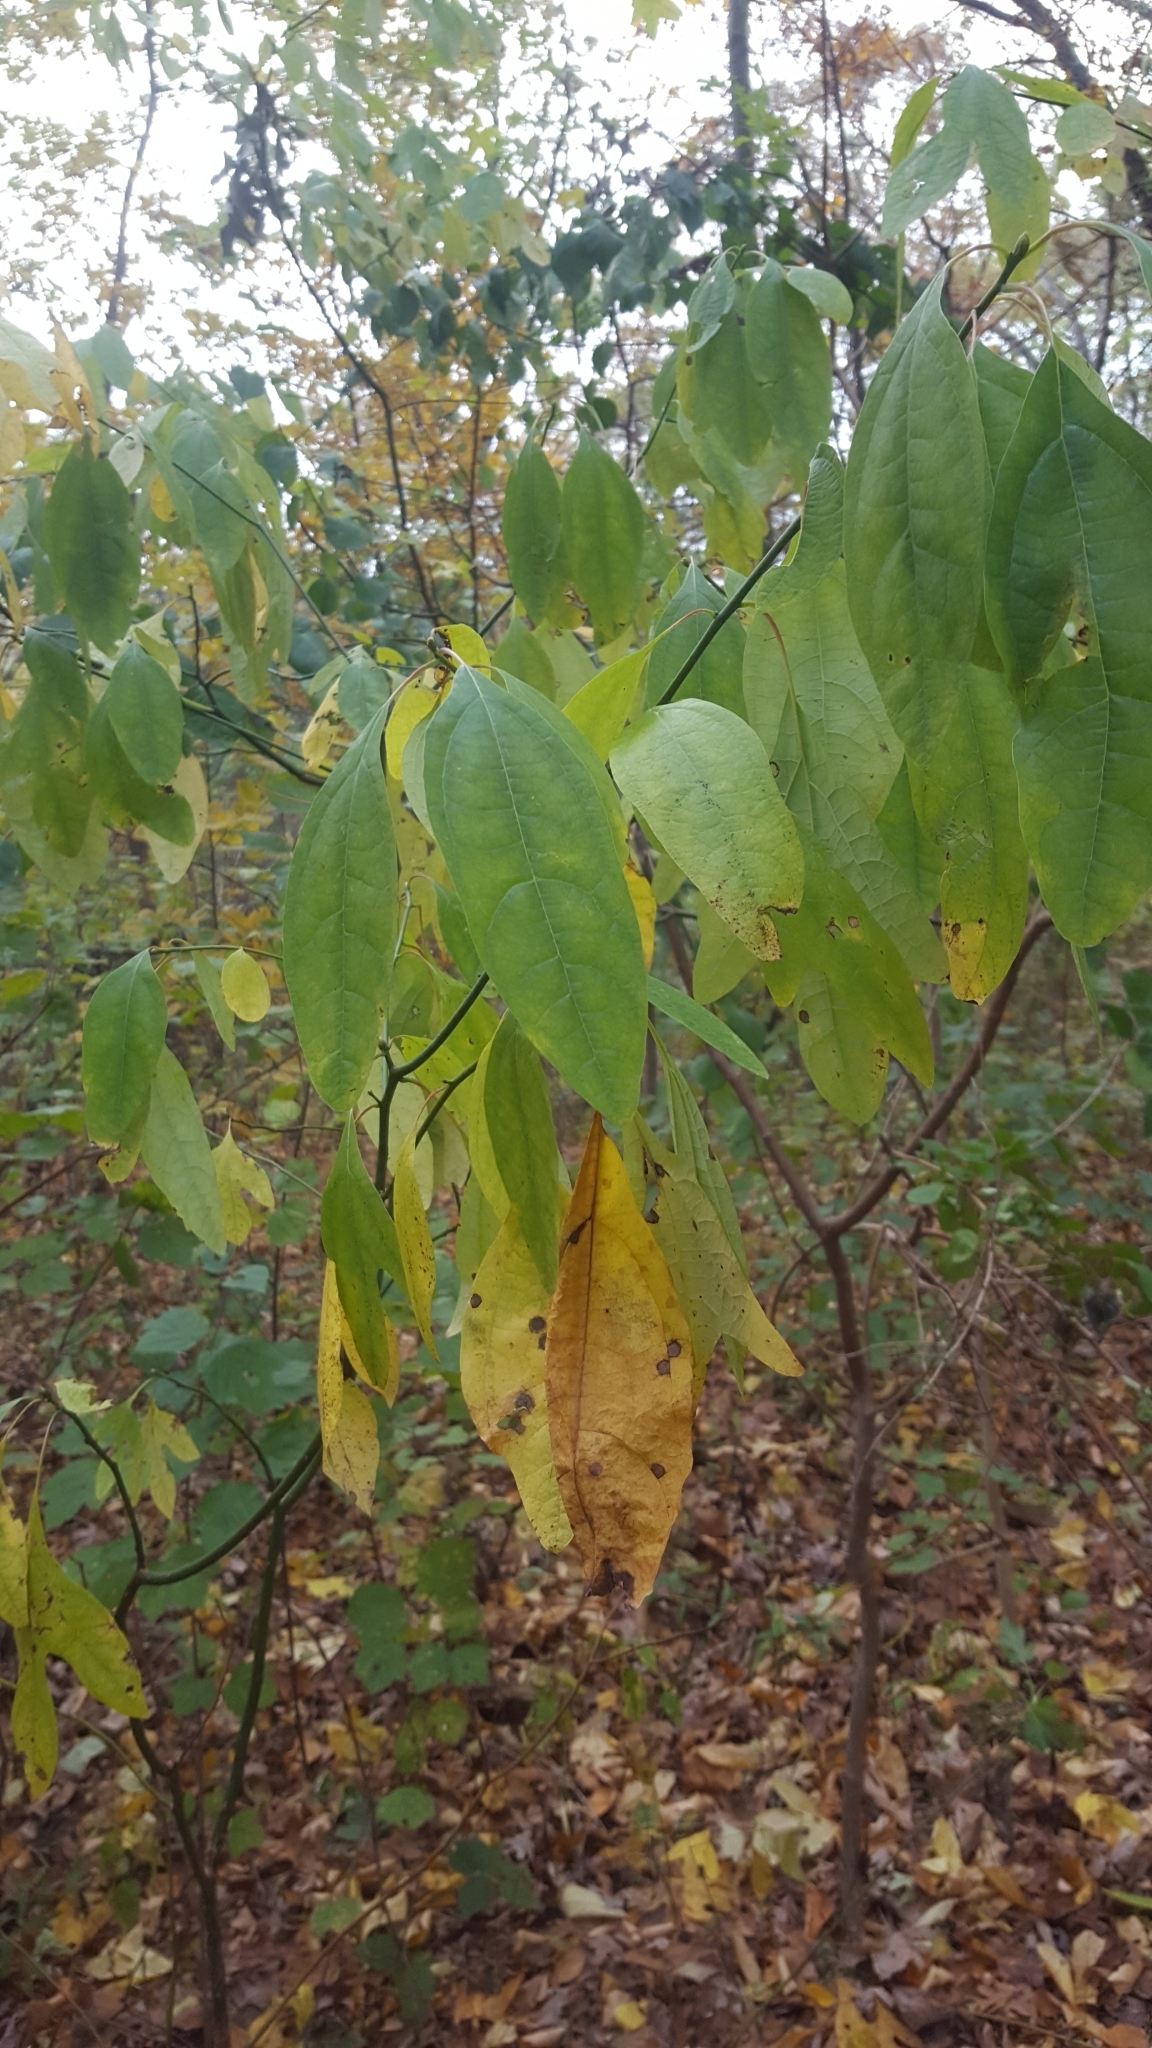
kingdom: Plantae
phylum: Tracheophyta
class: Magnoliopsida
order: Laurales
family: Lauraceae
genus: Sassafras
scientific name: Sassafras albidum
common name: Sassafras
